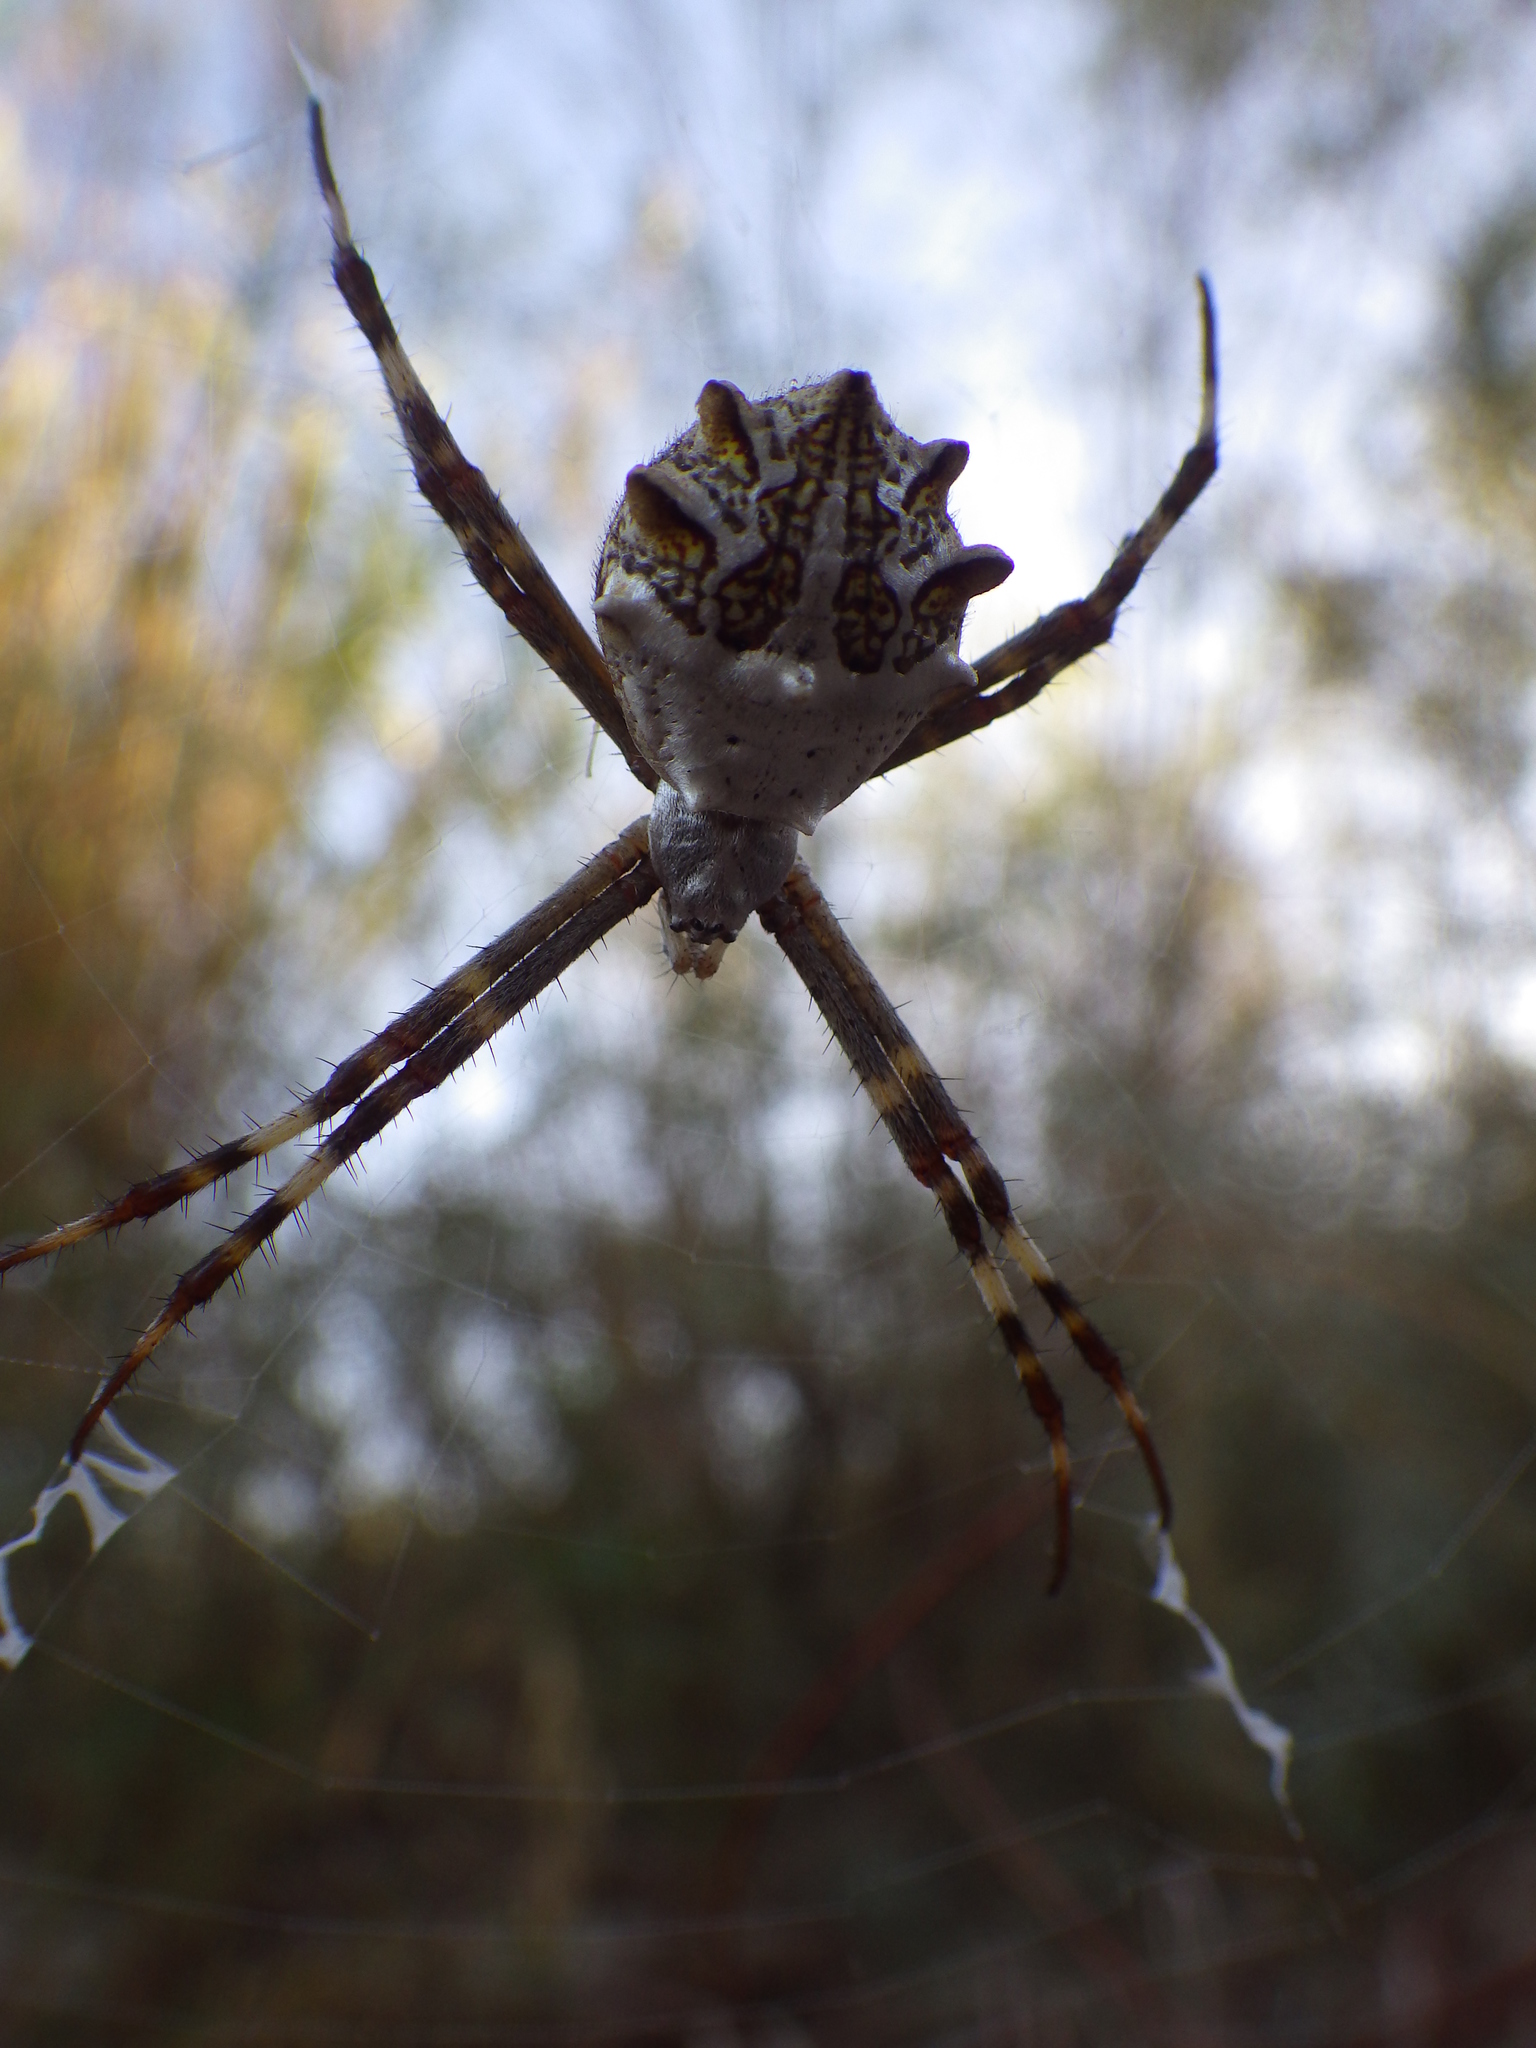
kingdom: Animalia
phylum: Arthropoda
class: Arachnida
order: Araneae
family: Araneidae
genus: Argiope
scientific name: Argiope argentata
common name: Orb weavers
